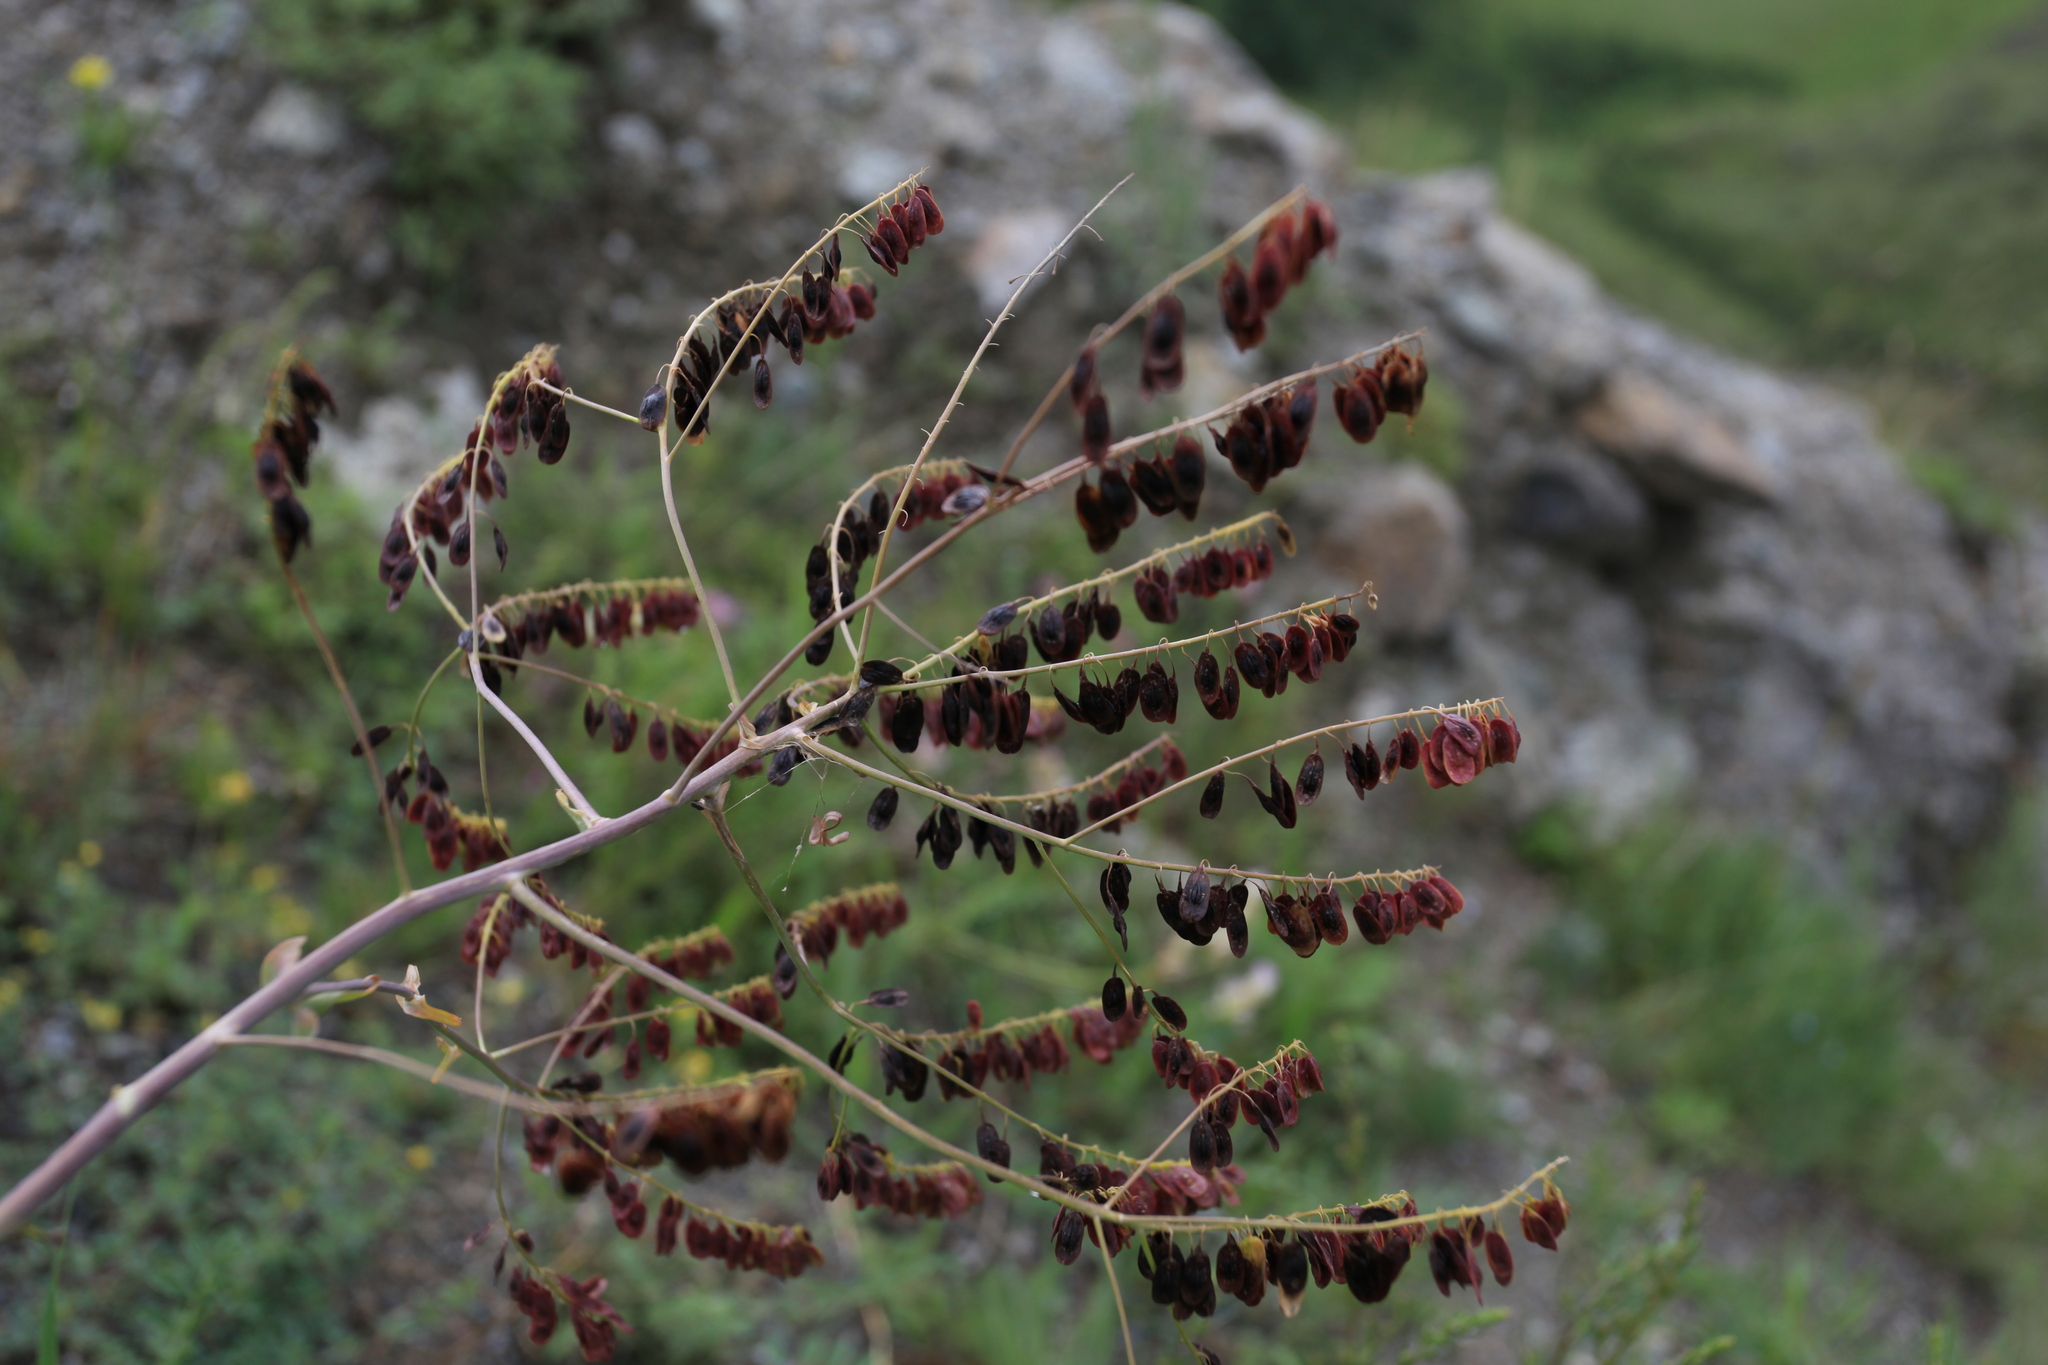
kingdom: Plantae
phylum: Tracheophyta
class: Magnoliopsida
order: Brassicales
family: Brassicaceae
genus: Isatis
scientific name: Isatis costata
